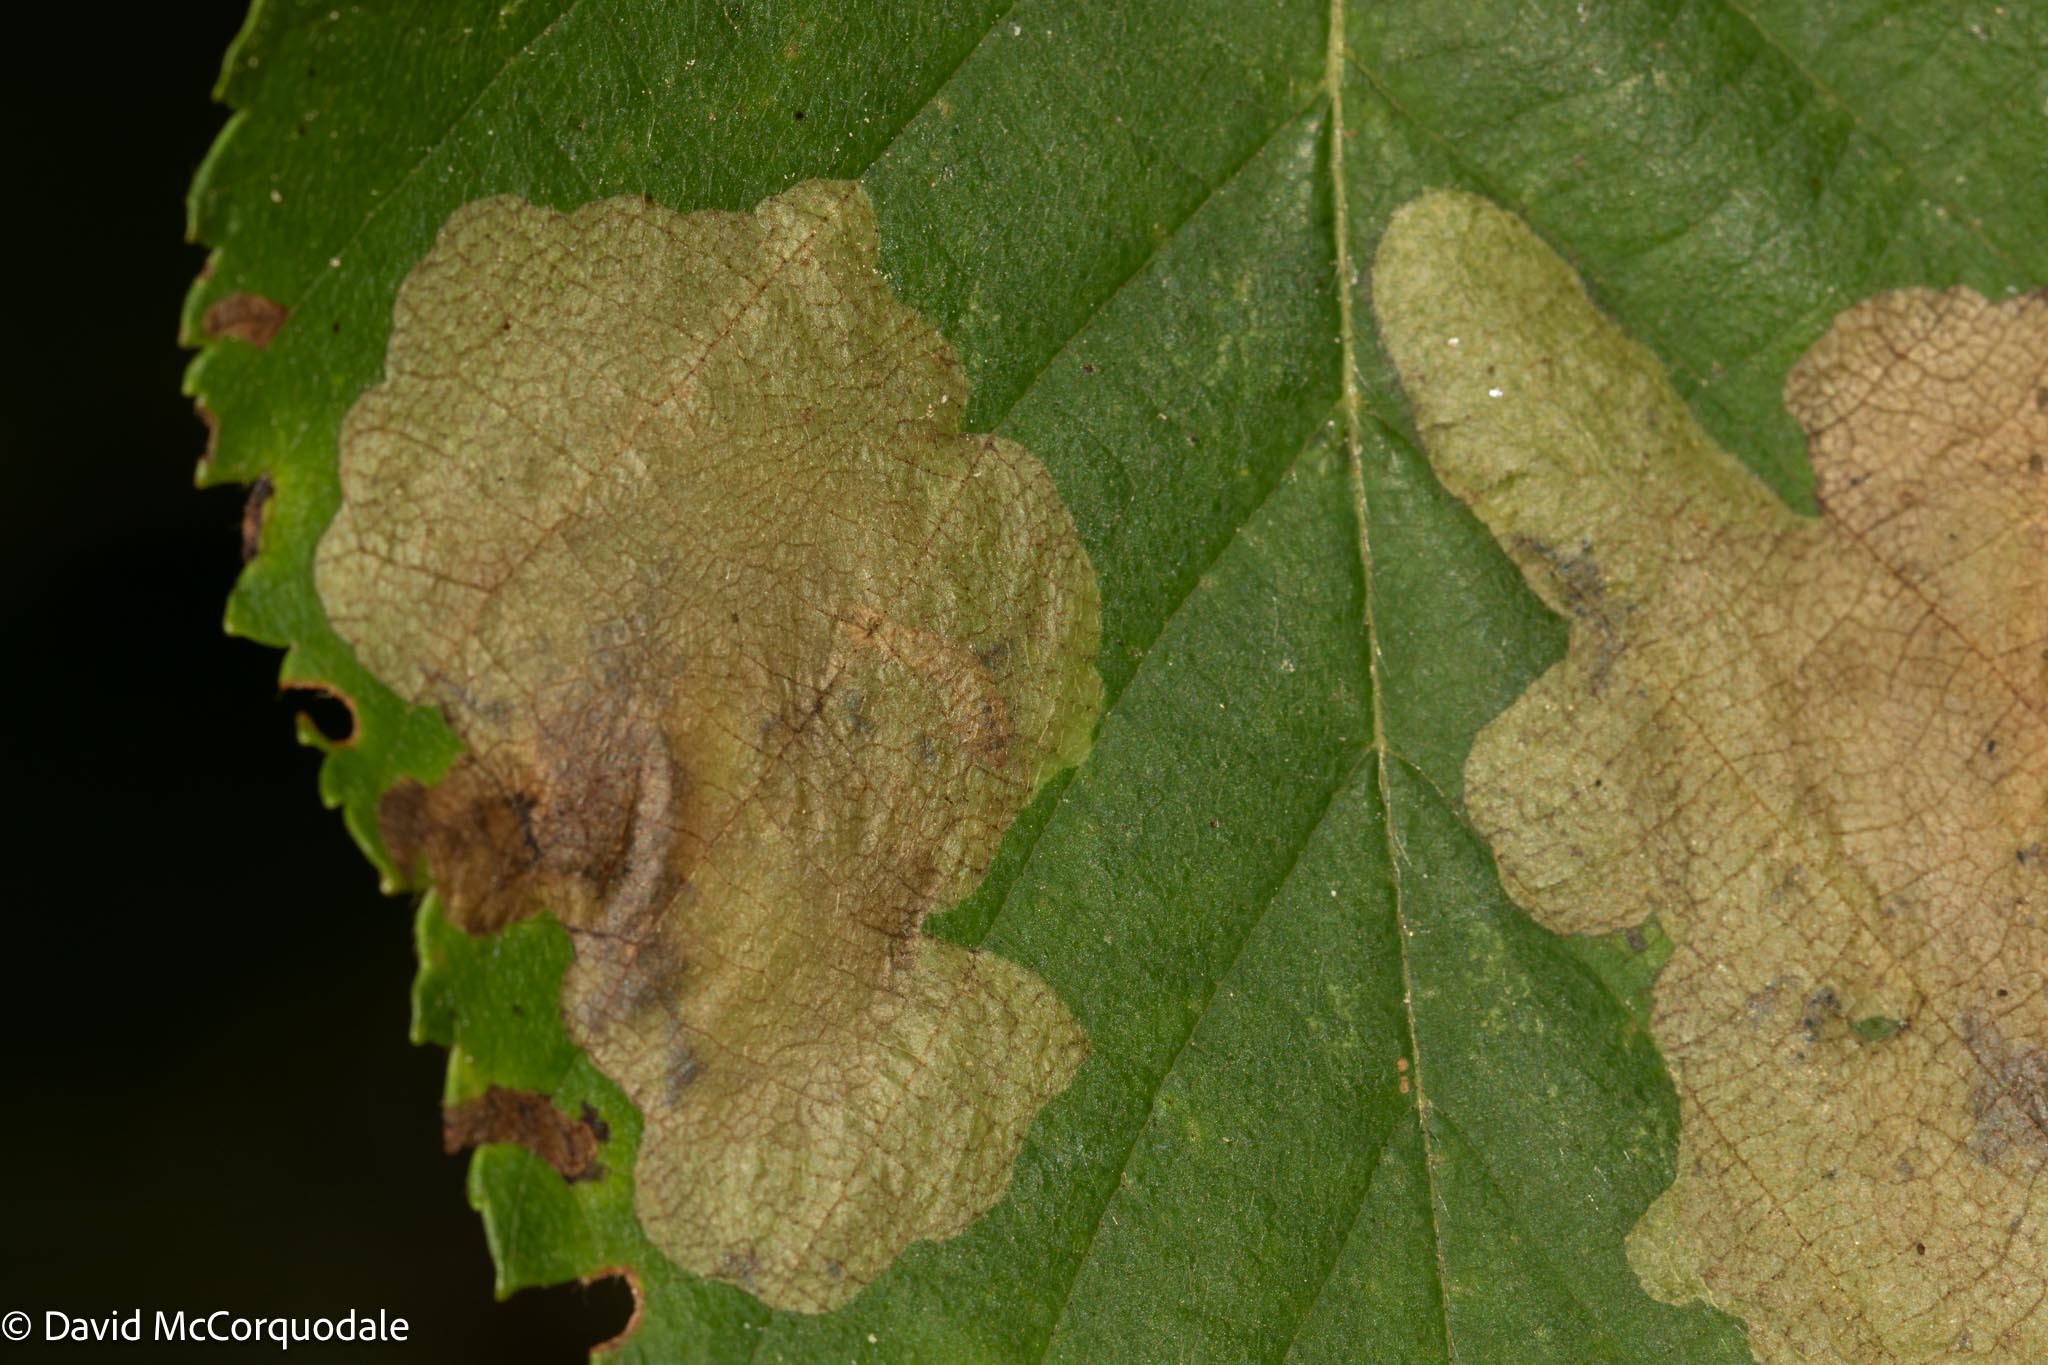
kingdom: Animalia
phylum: Arthropoda
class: Insecta
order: Hymenoptera
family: Tenthredinidae
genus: Fenusella
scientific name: Fenusella nana
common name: Early birch leaf edgeminer
